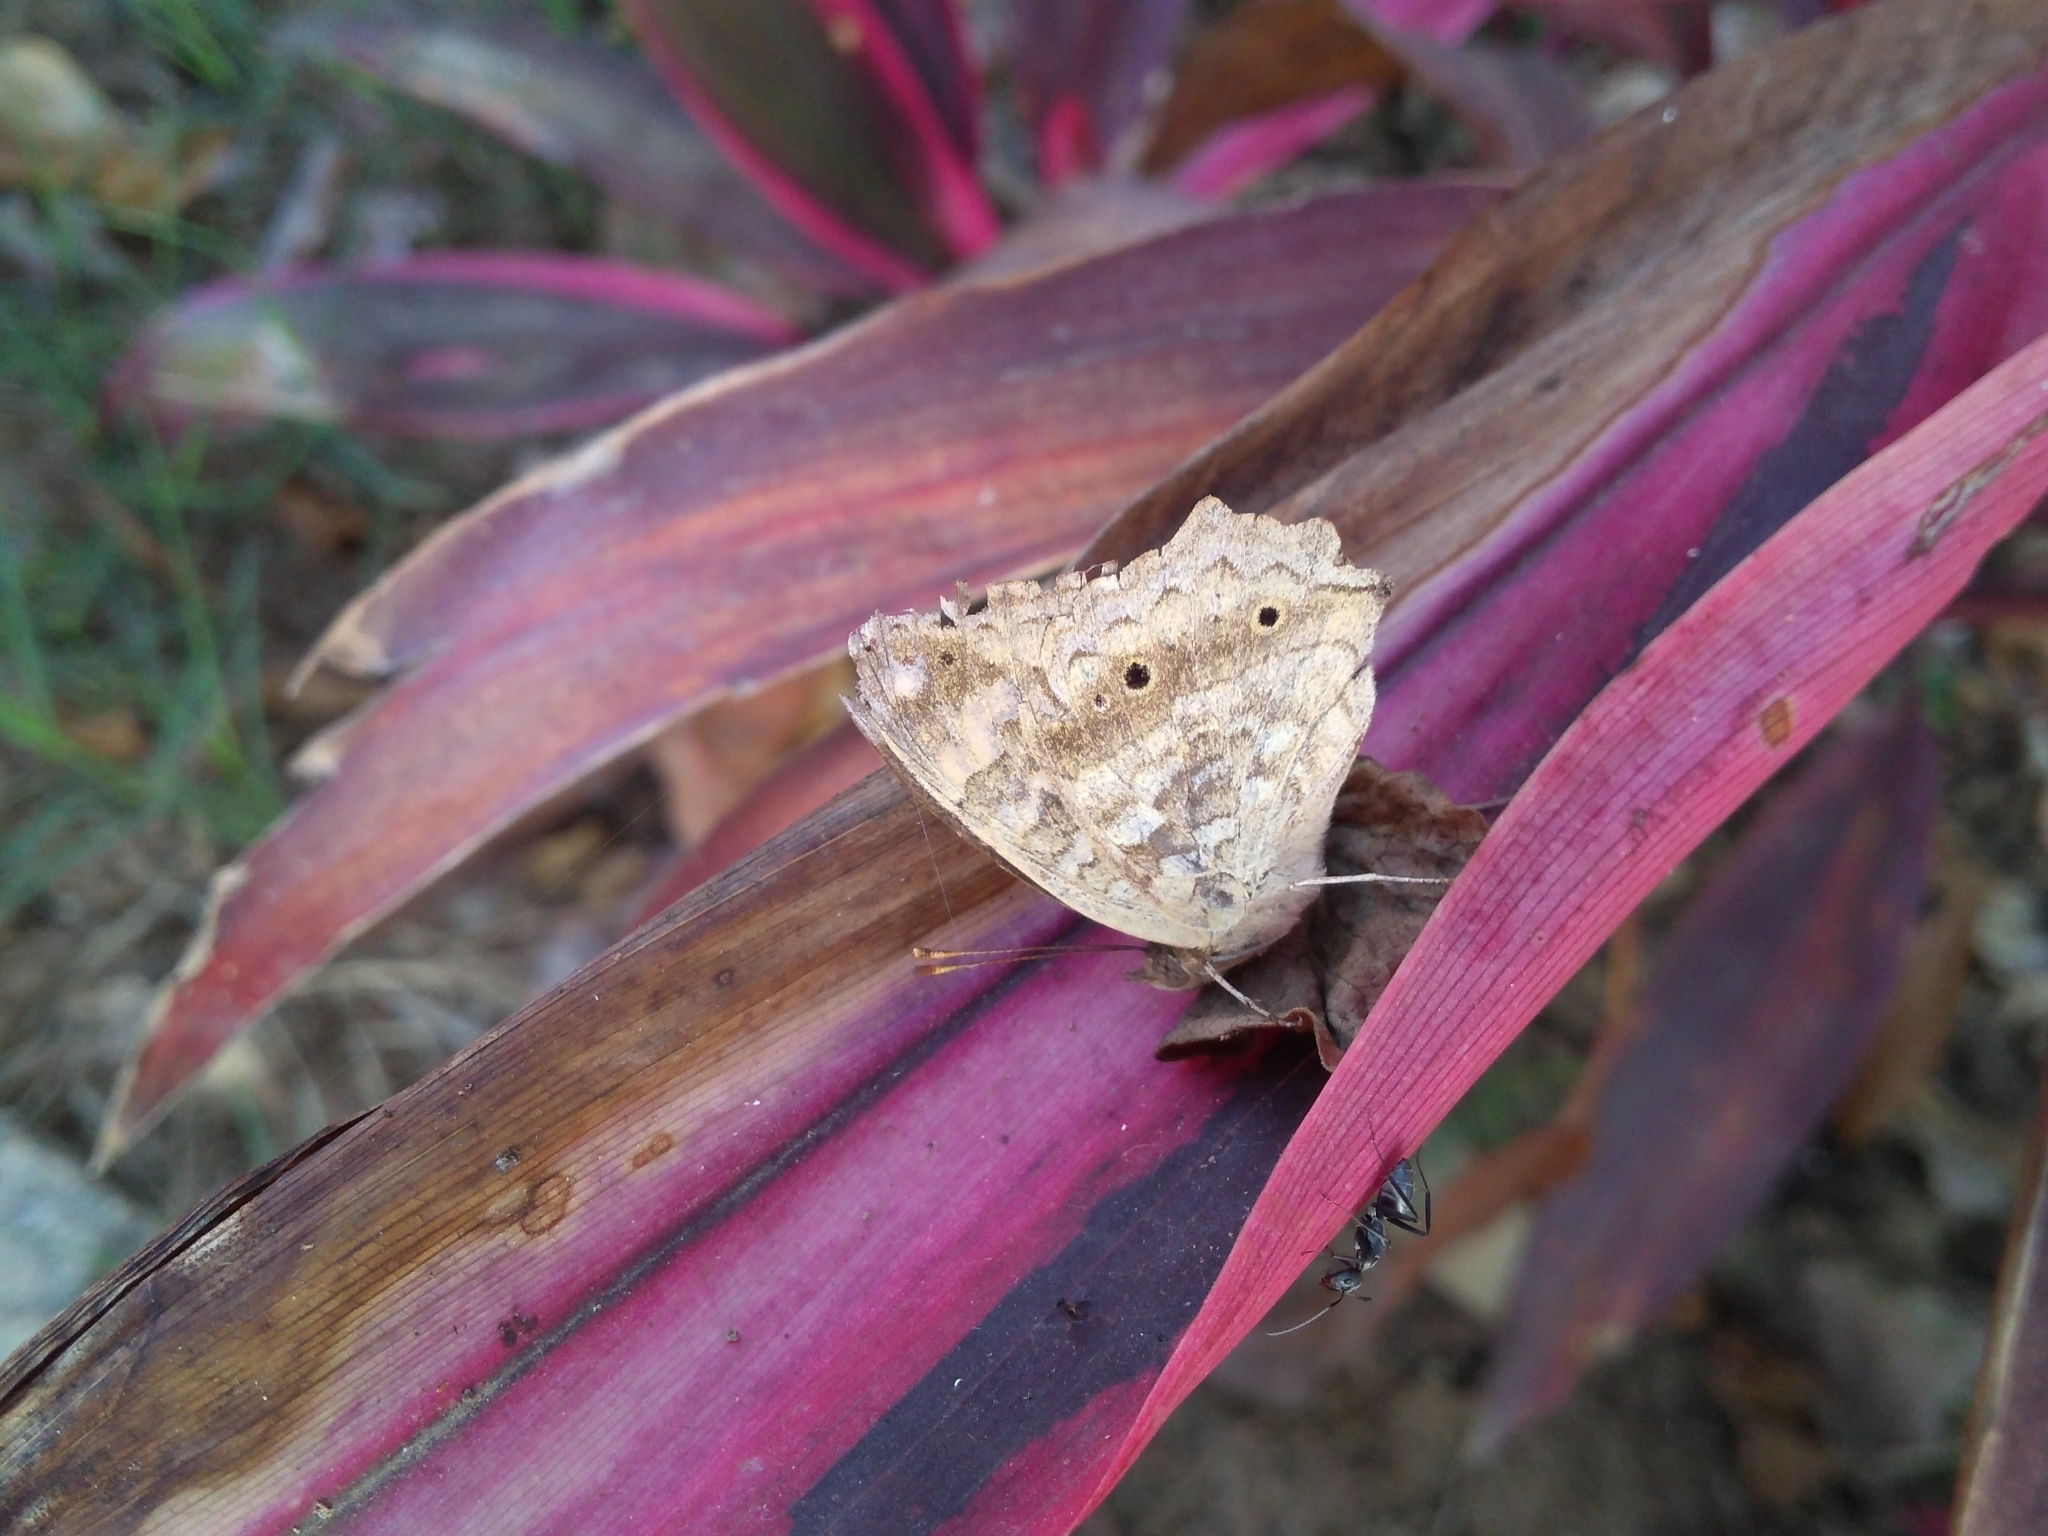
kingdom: Animalia
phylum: Arthropoda
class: Insecta
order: Lepidoptera
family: Nymphalidae
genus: Junonia
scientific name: Junonia lemonias
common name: Lemon pansy
